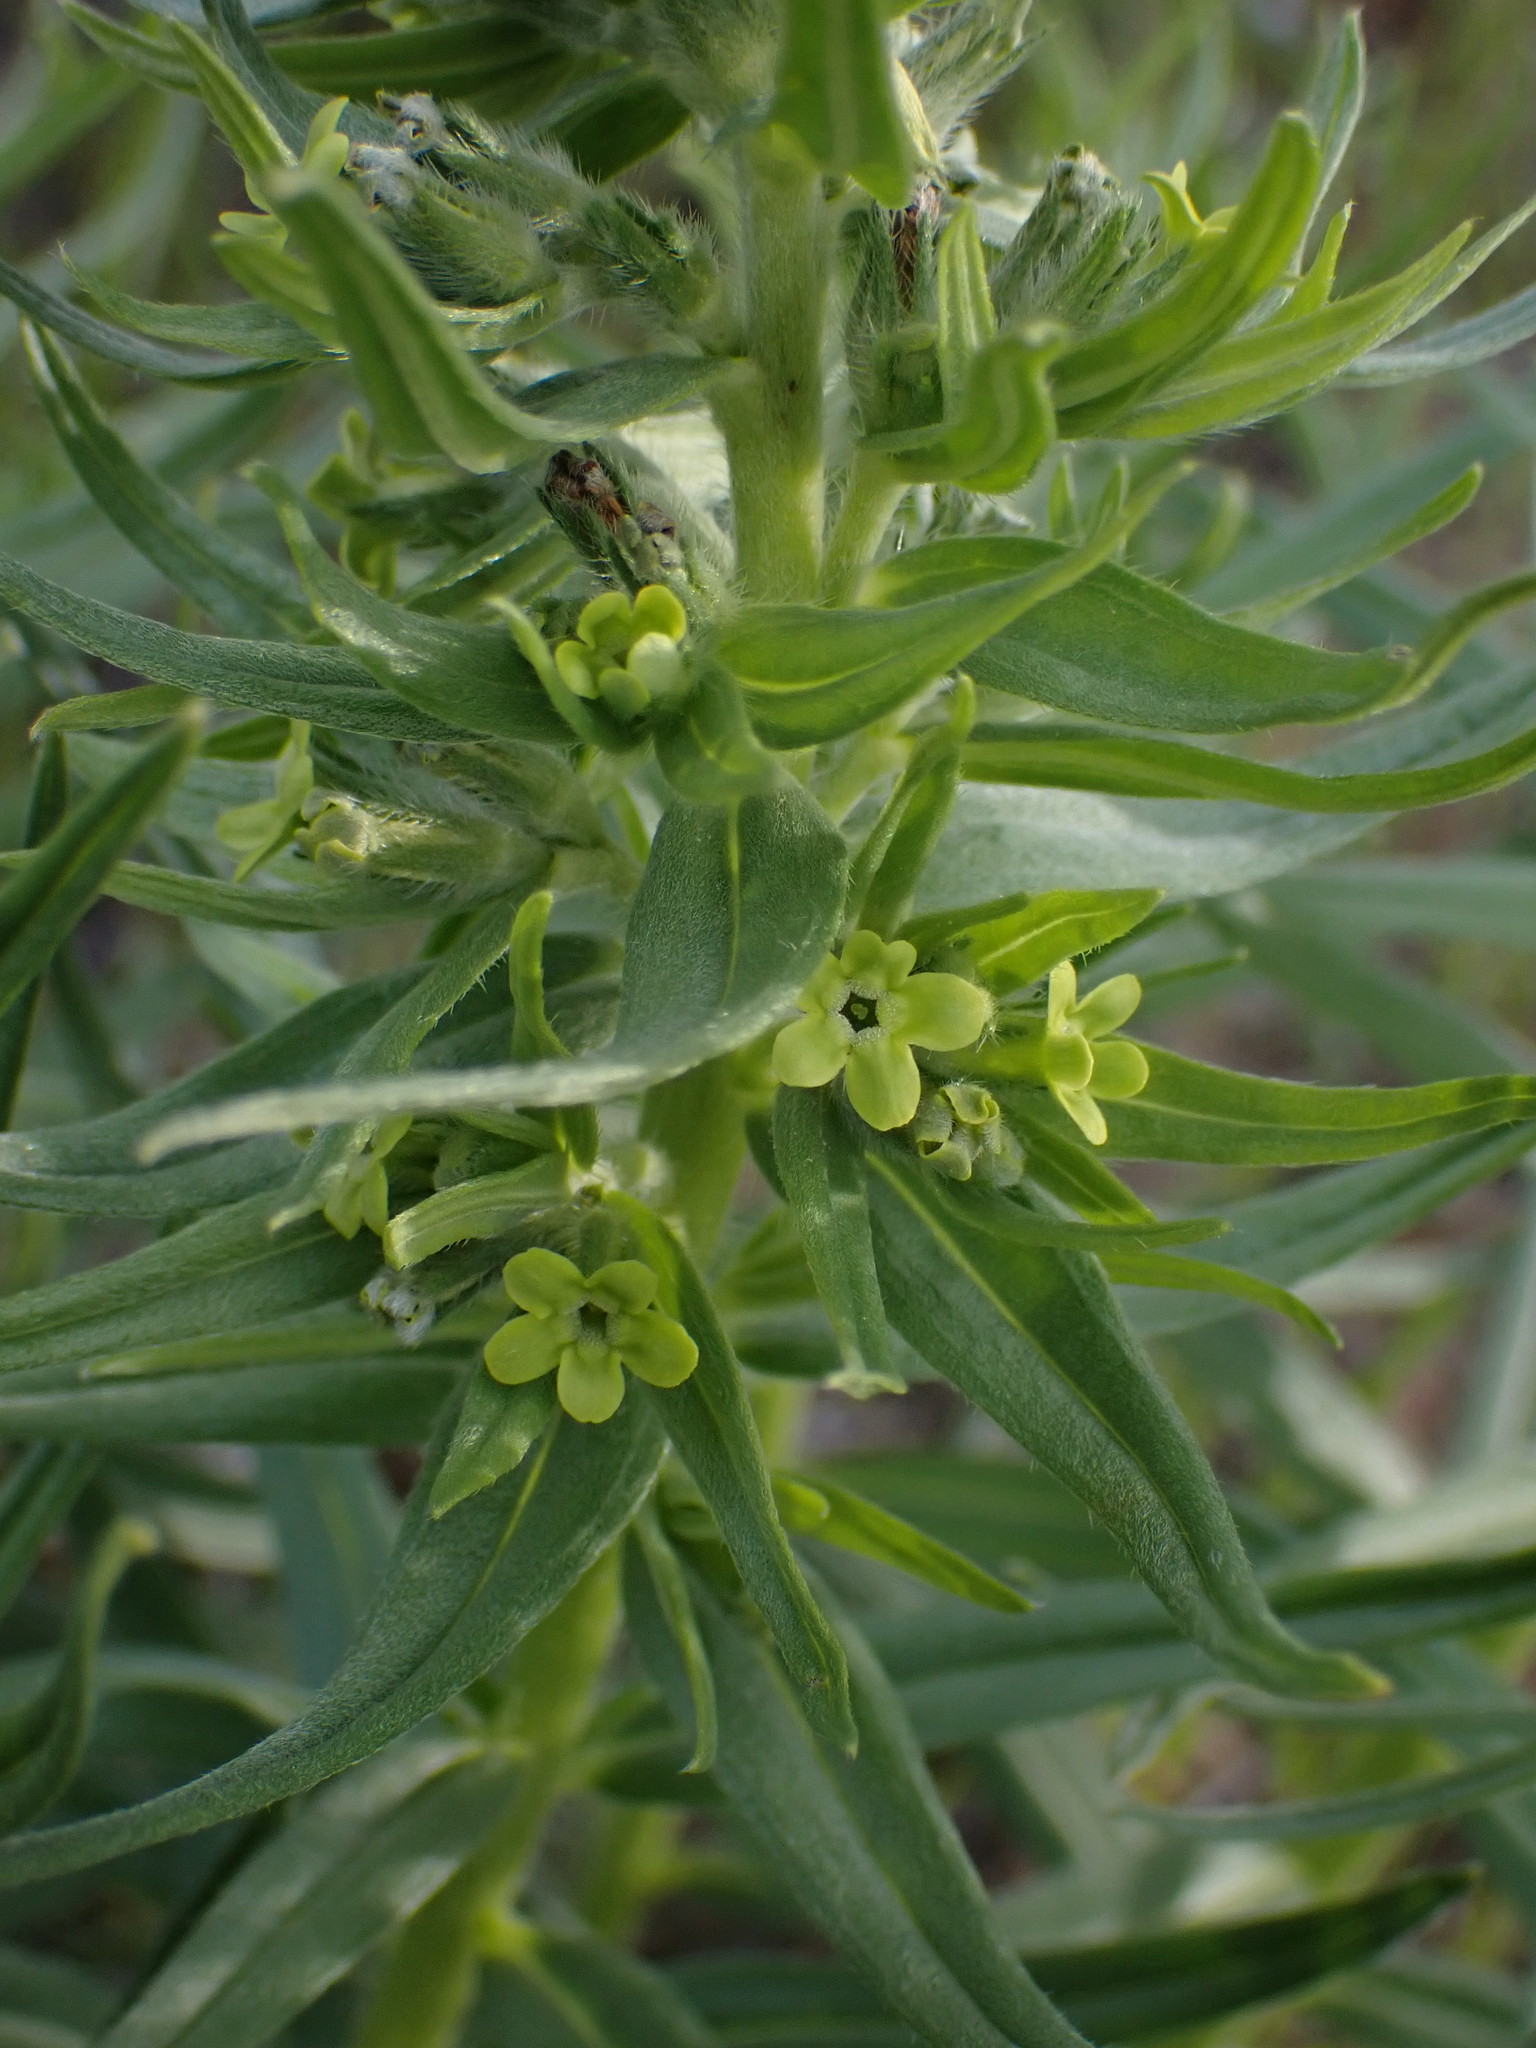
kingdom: Plantae
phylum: Tracheophyta
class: Magnoliopsida
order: Boraginales
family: Boraginaceae
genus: Lithospermum
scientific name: Lithospermum ruderale
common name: Western gromwell
